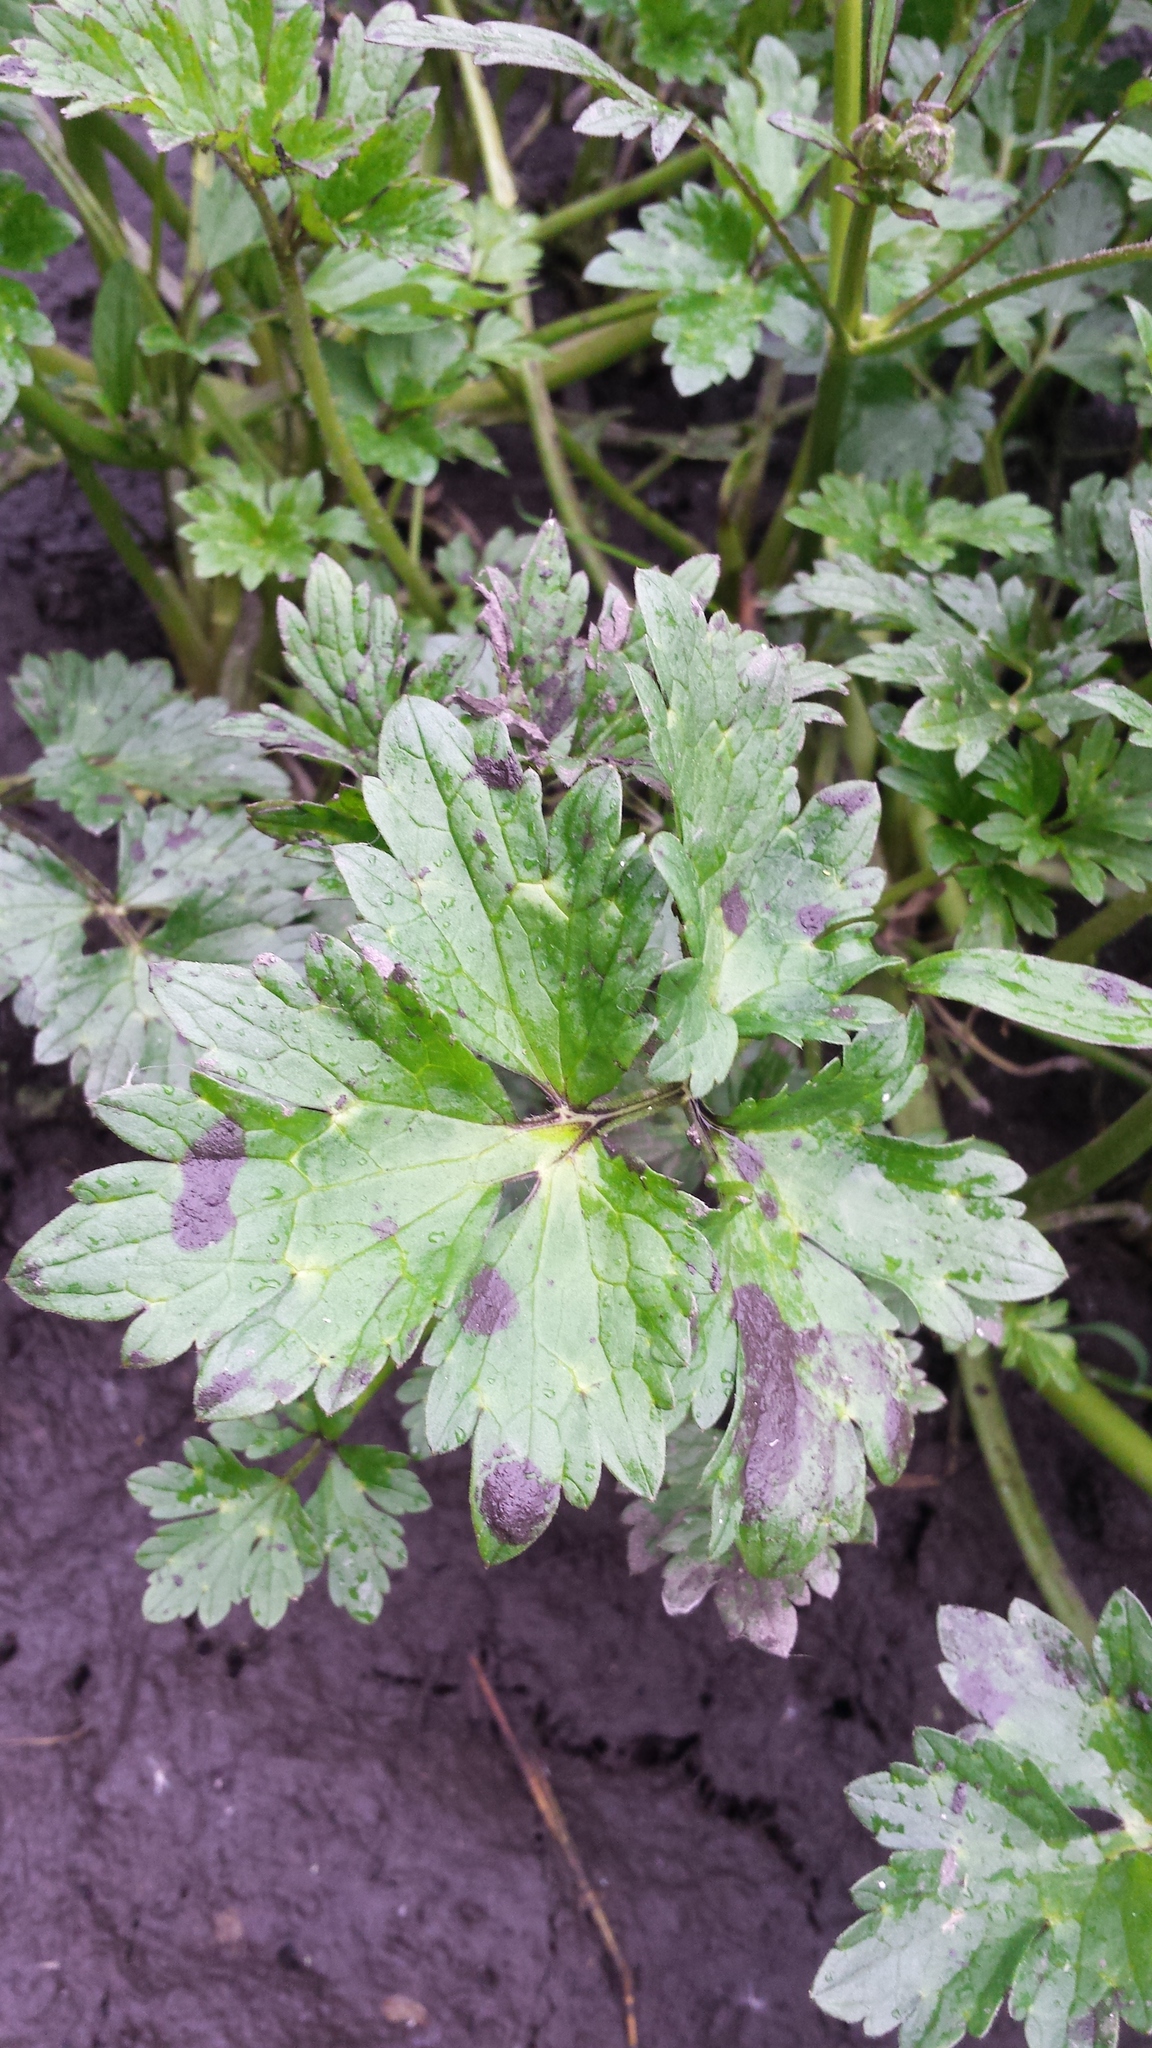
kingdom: Plantae
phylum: Tracheophyta
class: Magnoliopsida
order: Ranunculales
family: Ranunculaceae
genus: Ranunculus
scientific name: Ranunculus repens
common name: Creeping buttercup
